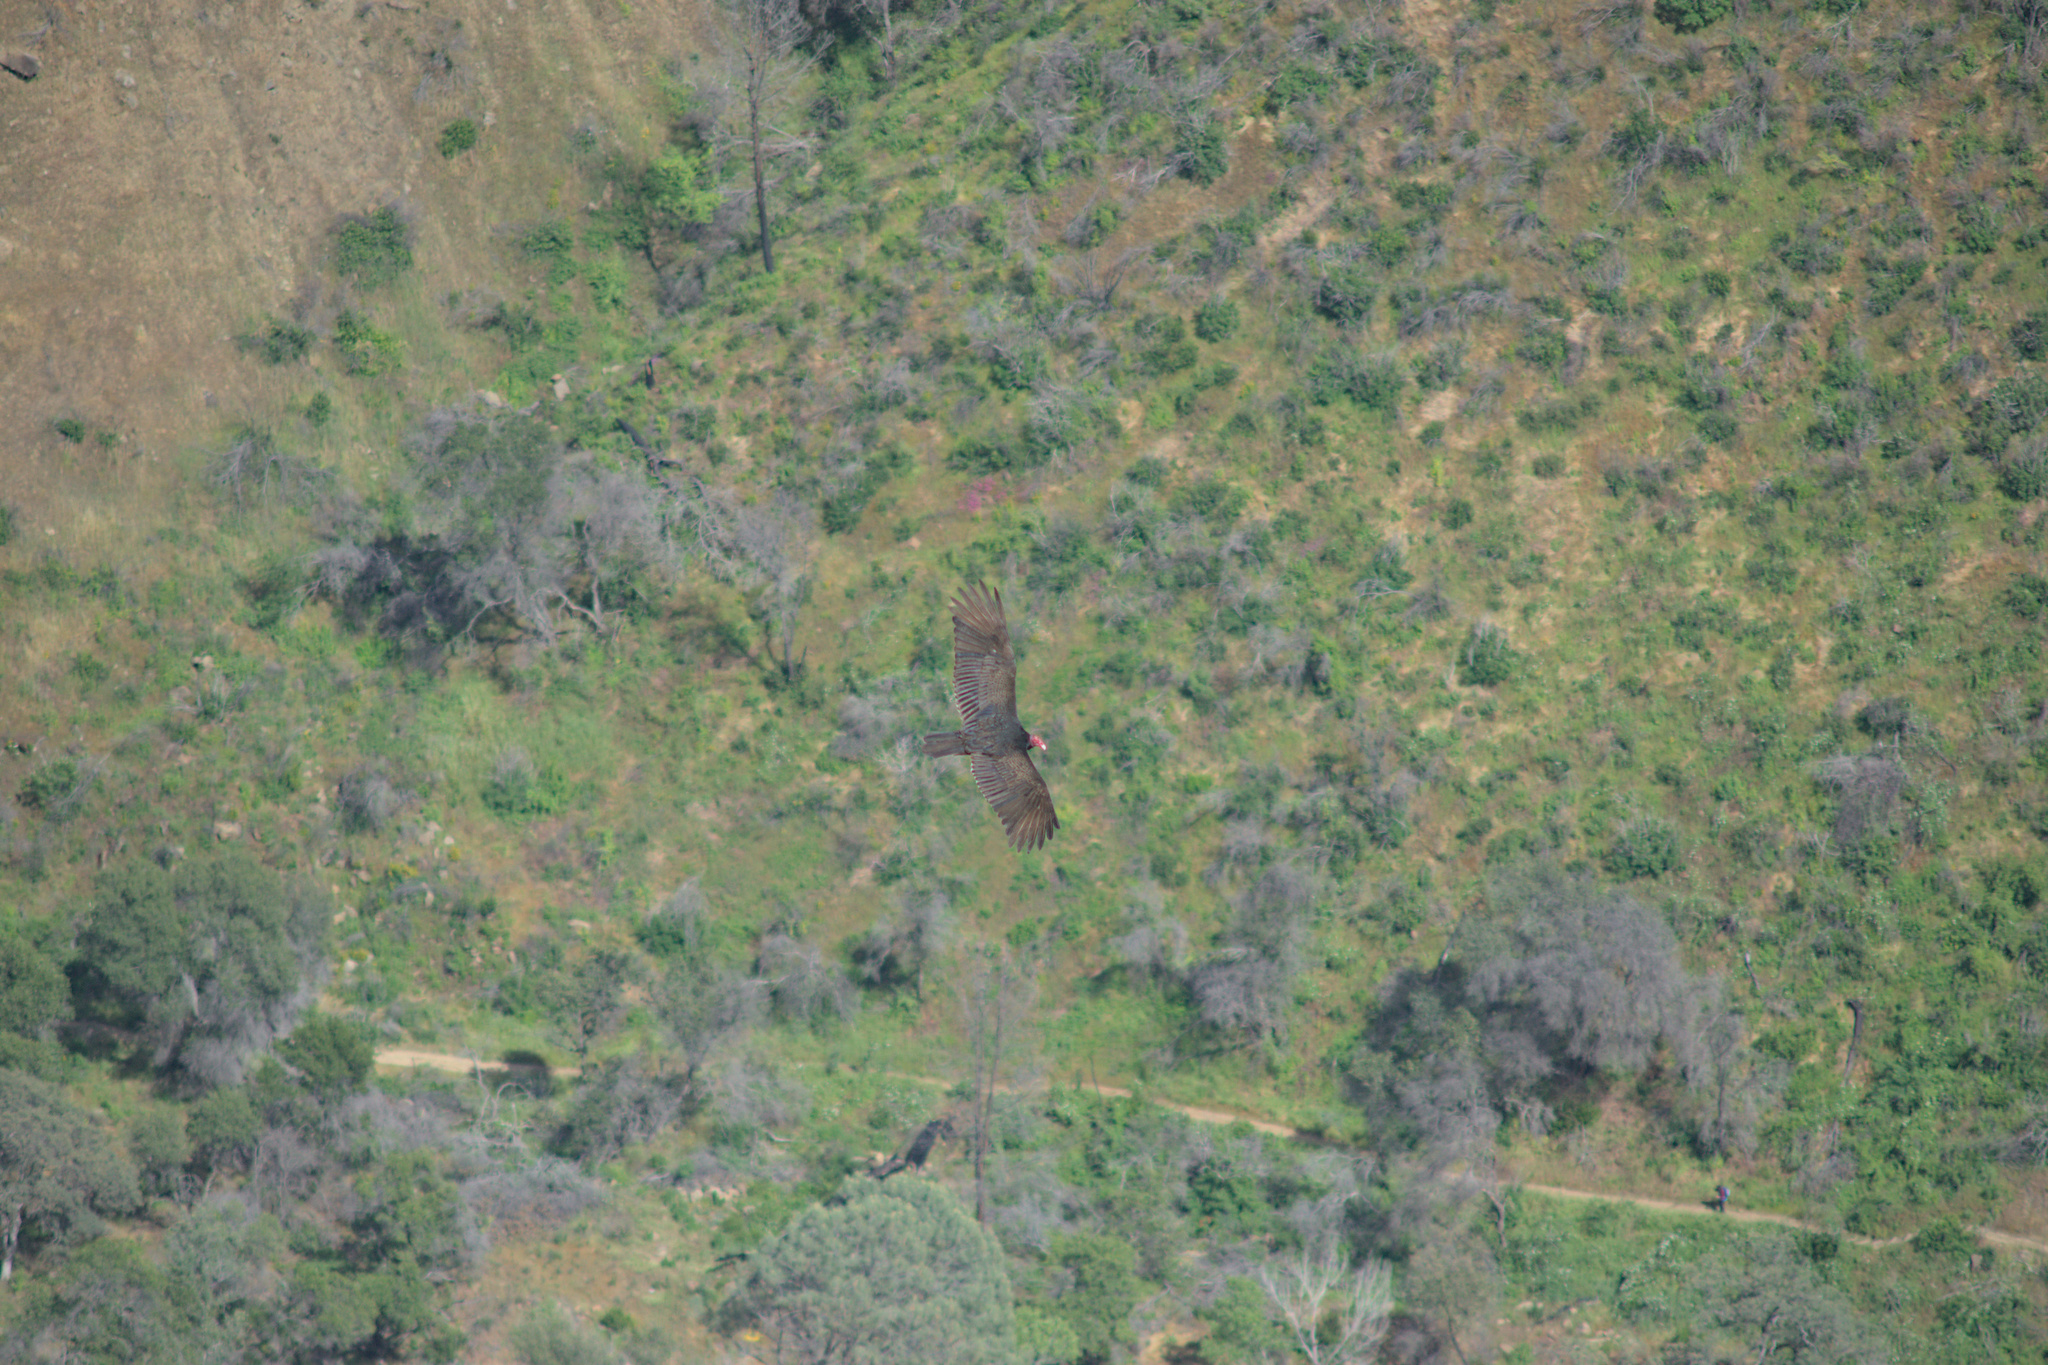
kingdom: Animalia
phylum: Chordata
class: Aves
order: Accipitriformes
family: Cathartidae
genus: Cathartes
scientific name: Cathartes aura
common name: Turkey vulture
